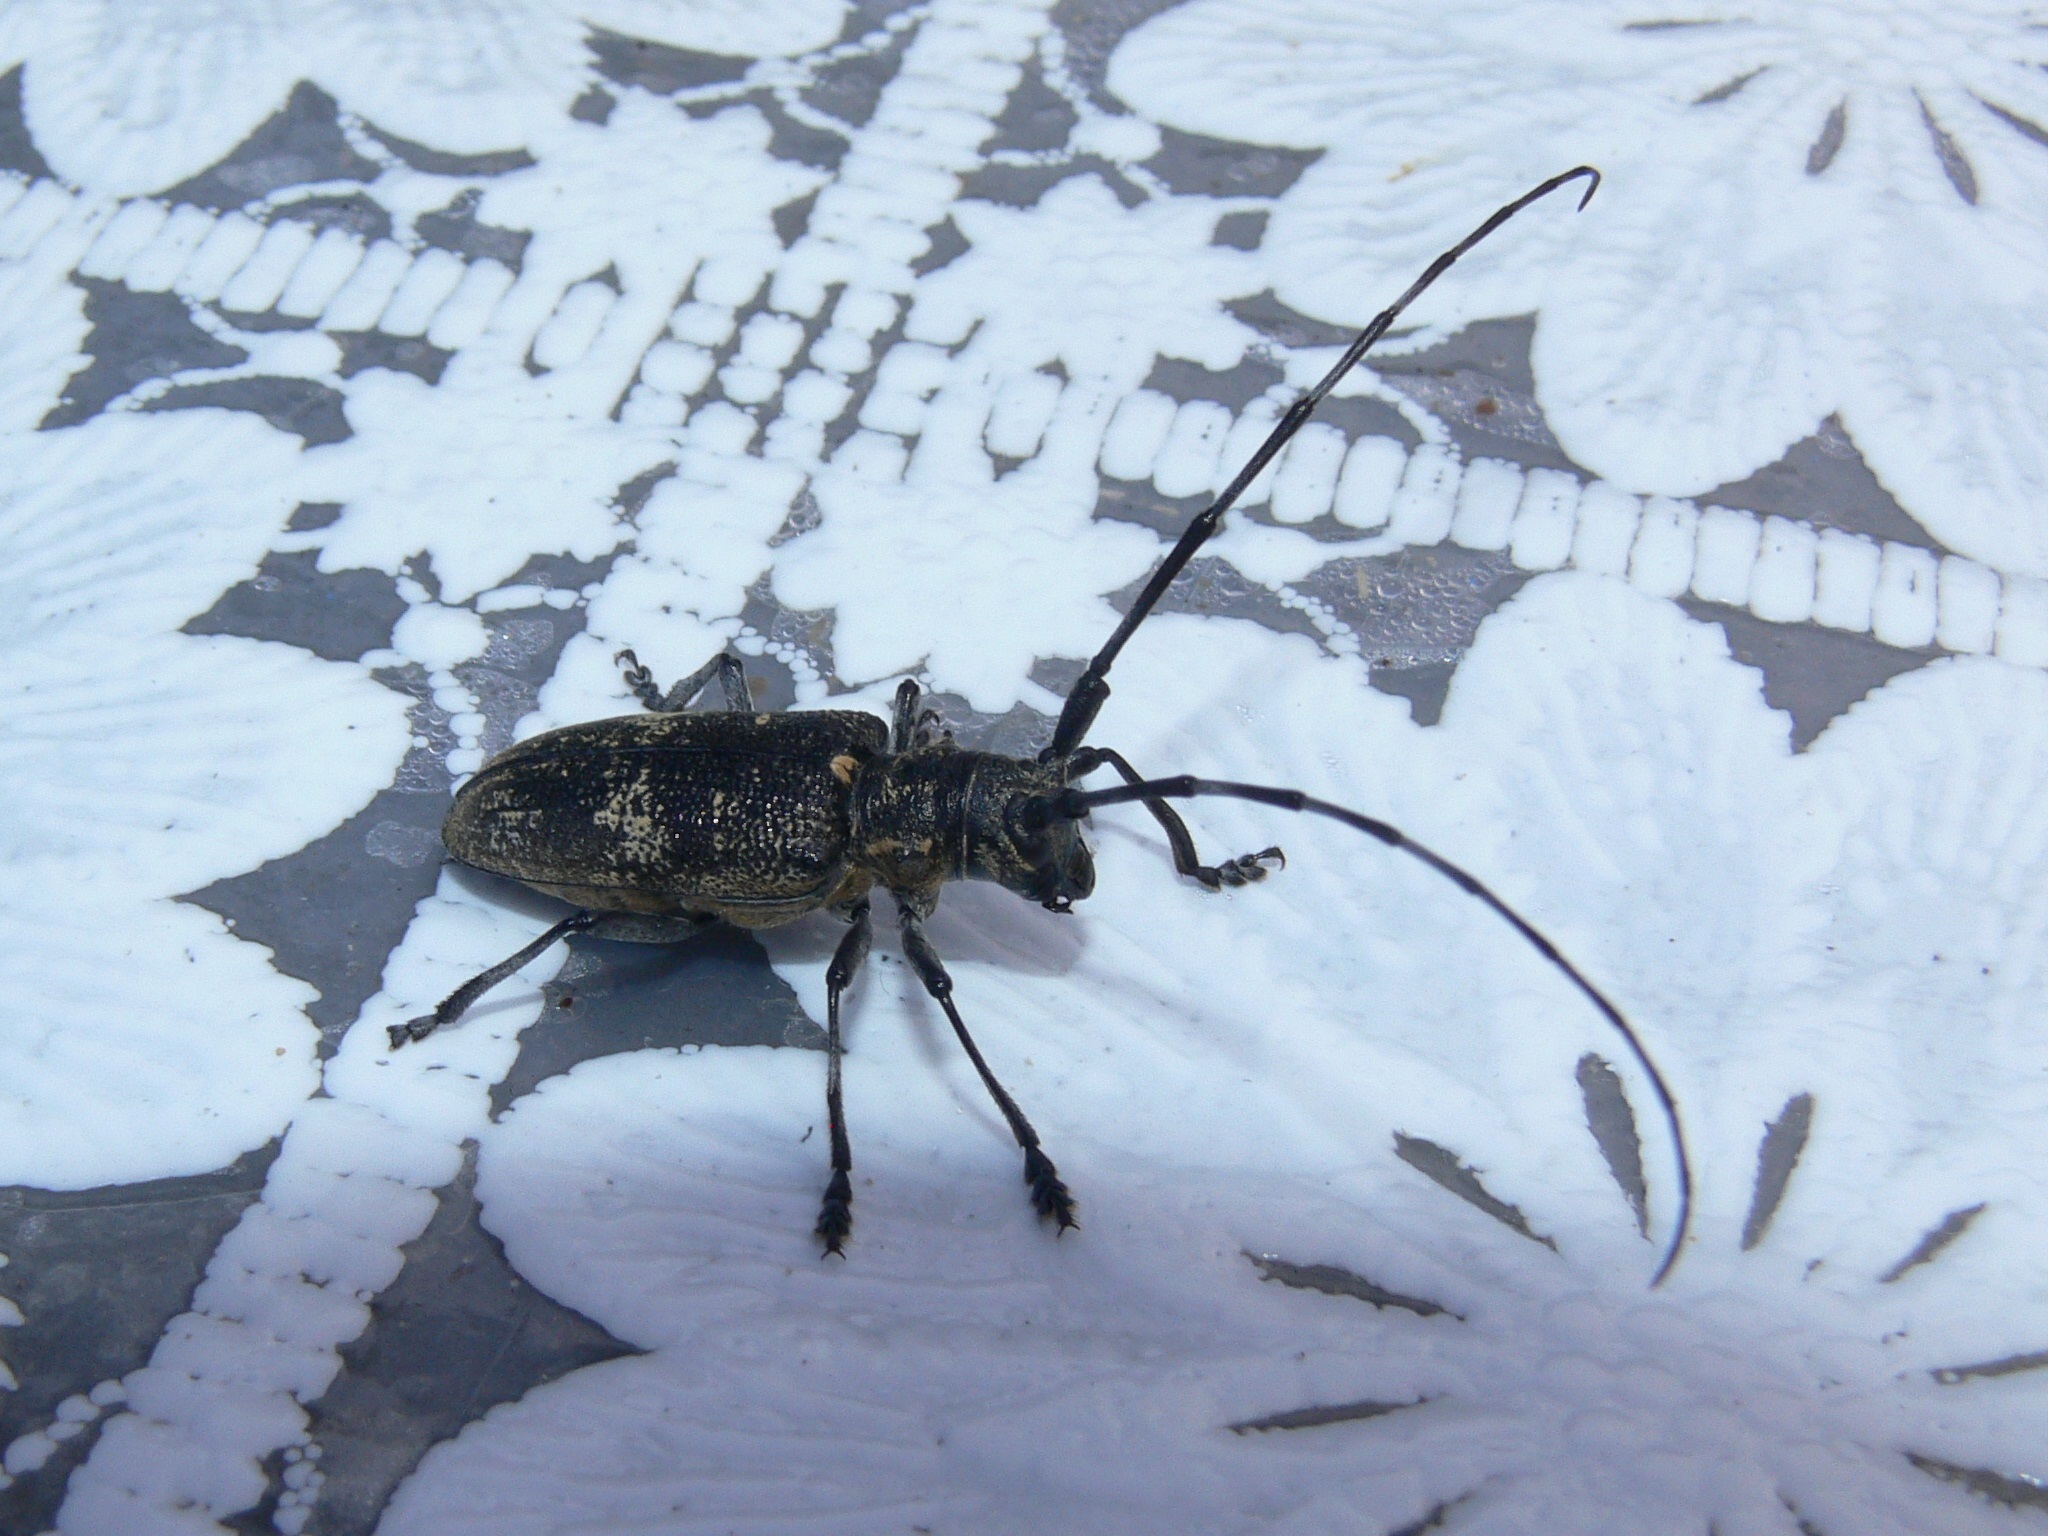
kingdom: Animalia
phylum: Arthropoda
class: Insecta
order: Coleoptera
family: Cerambycidae
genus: Monochamus
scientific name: Monochamus galloprovincialis
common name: Pine sawyer
